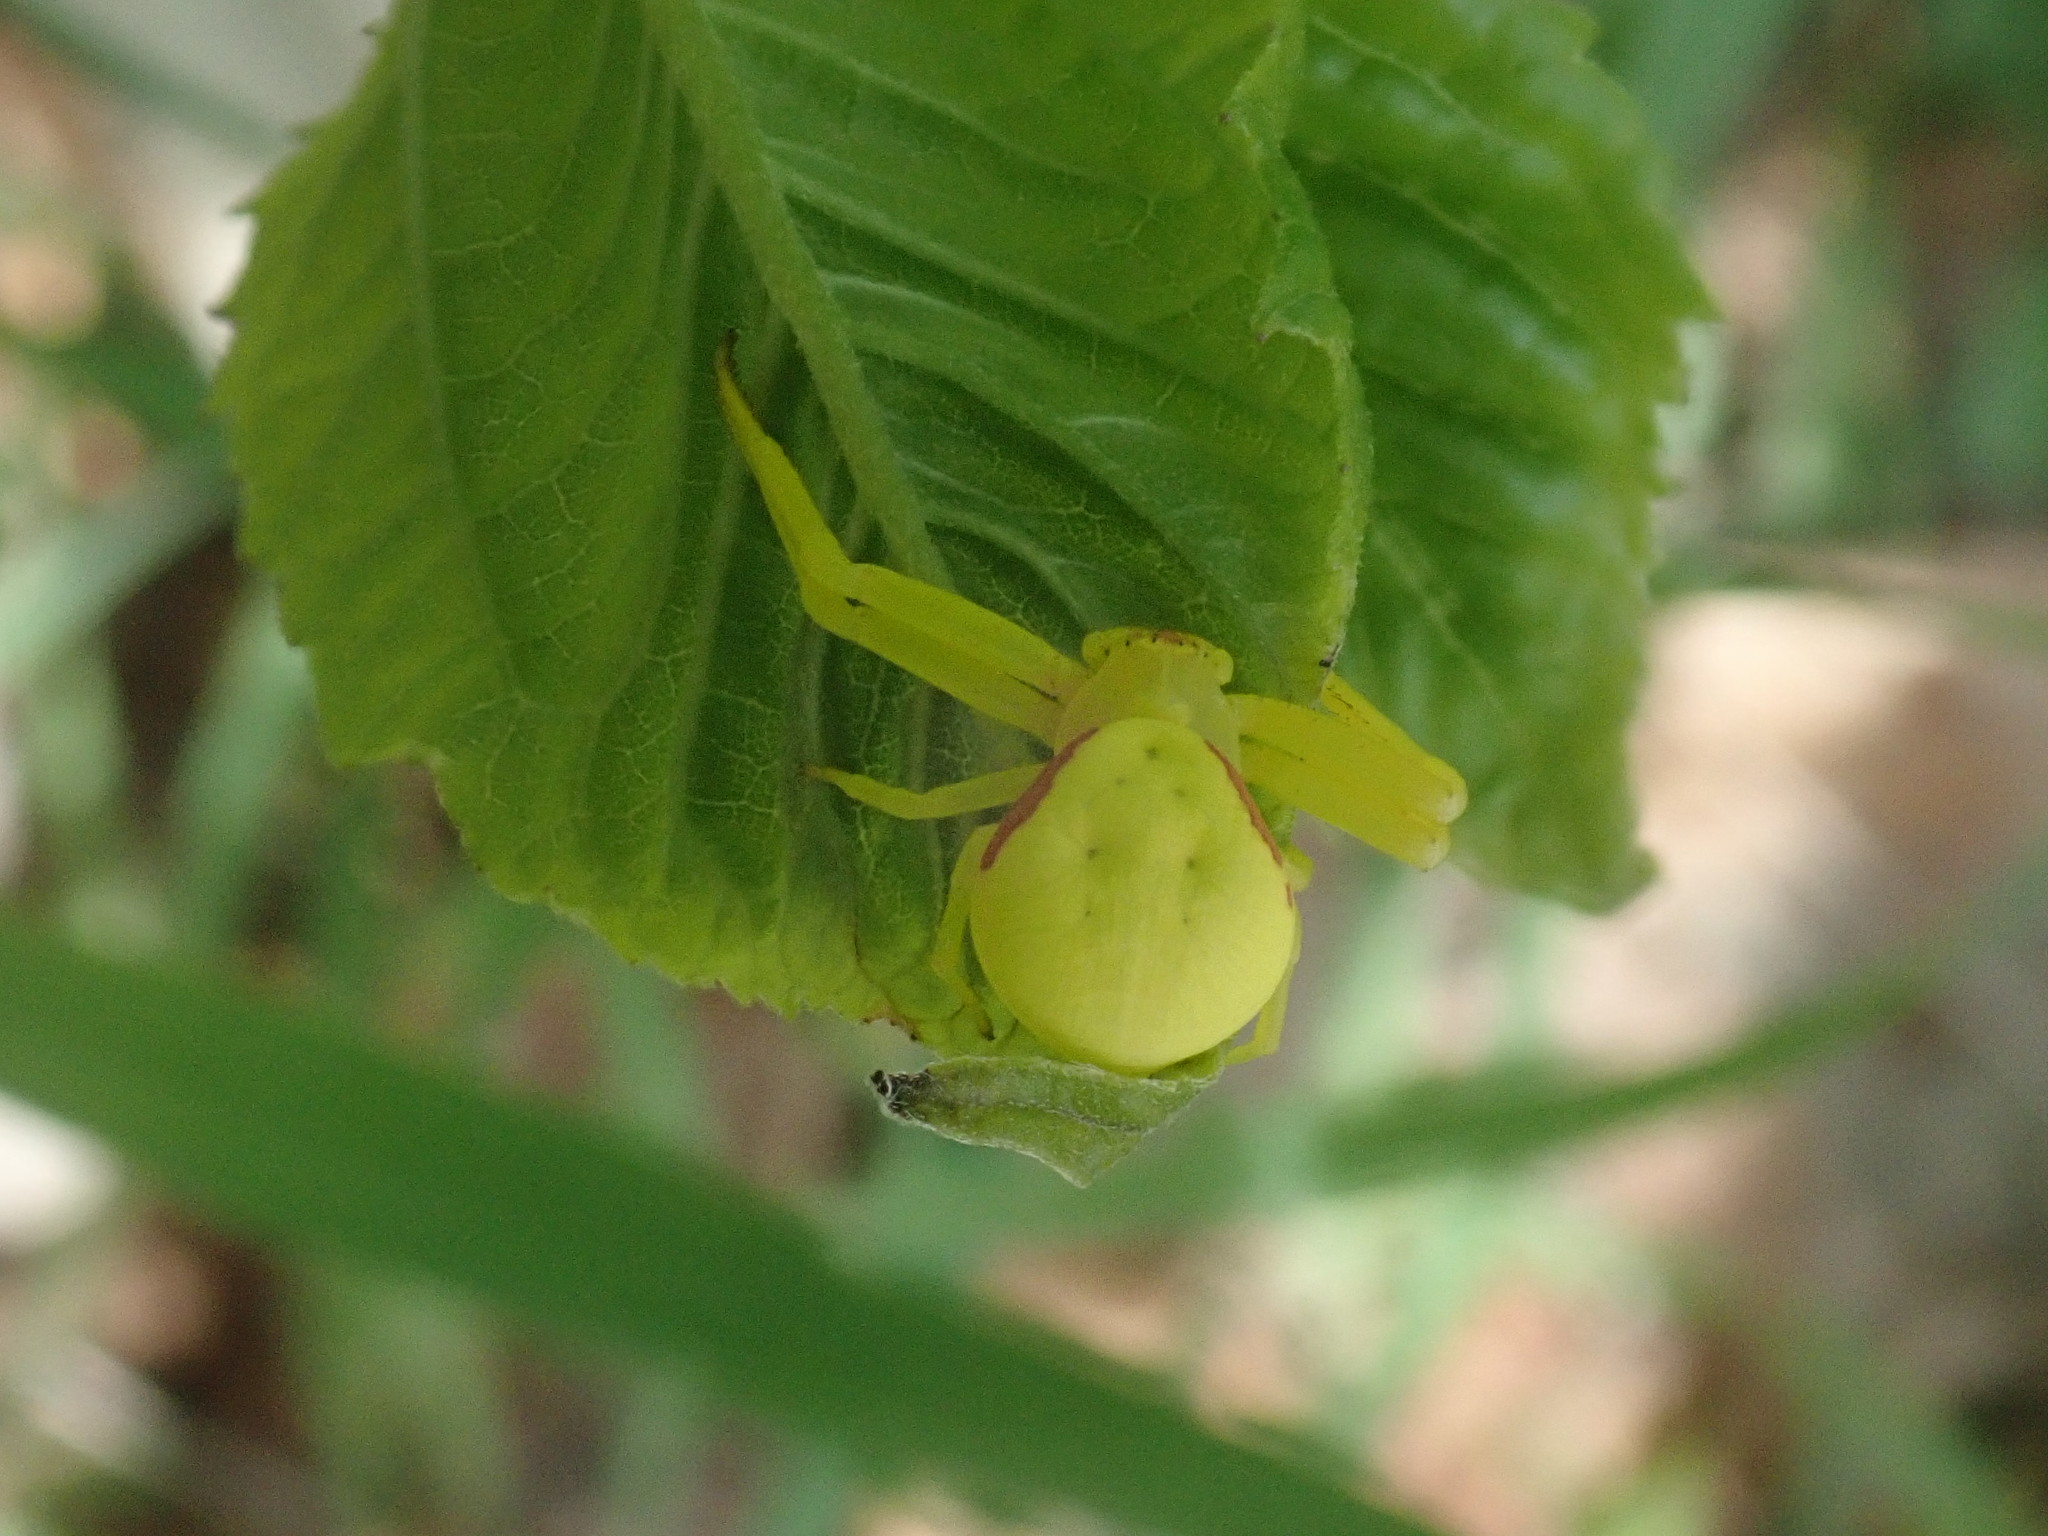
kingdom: Animalia
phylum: Arthropoda
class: Arachnida
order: Araneae
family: Thomisidae
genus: Misumena
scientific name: Misumena vatia
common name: Goldenrod crab spider
